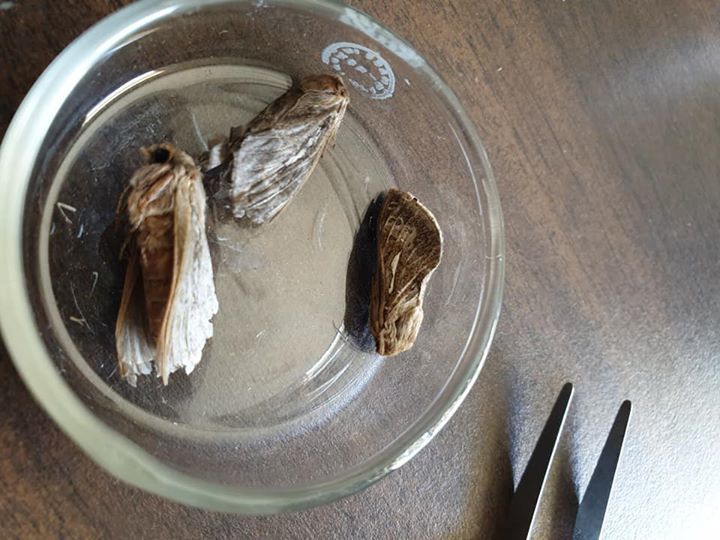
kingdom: Animalia
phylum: Arthropoda
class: Insecta
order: Lepidoptera
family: Hepialidae
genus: Wiseana
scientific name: Wiseana umbraculatus
